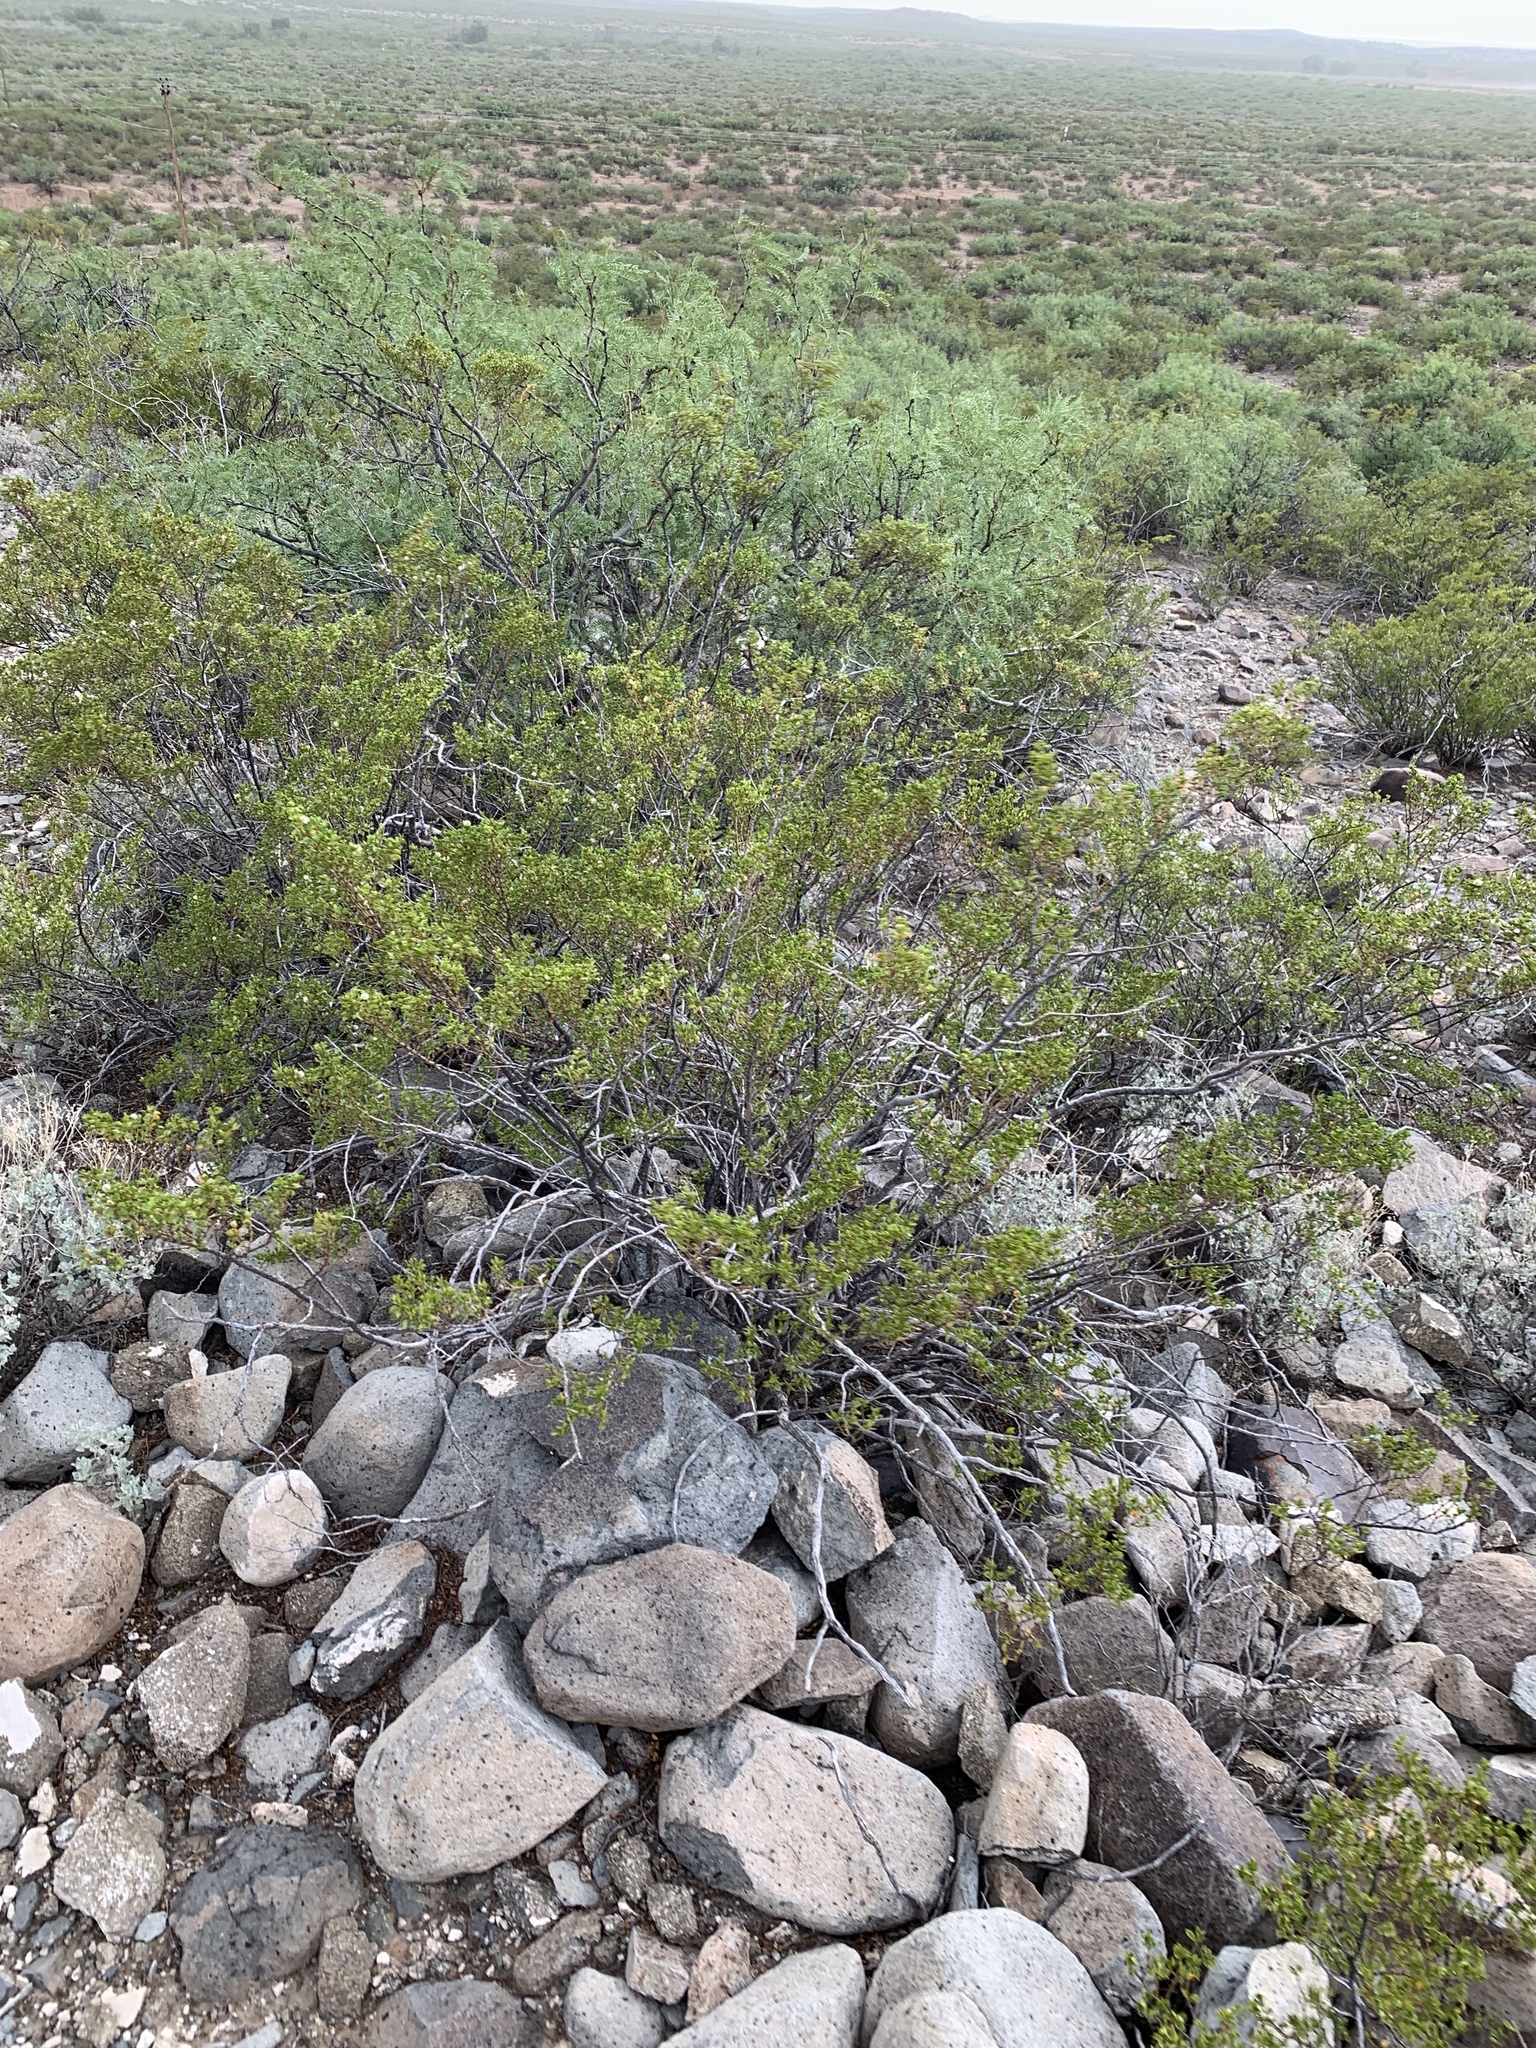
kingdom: Plantae
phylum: Tracheophyta
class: Magnoliopsida
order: Zygophyllales
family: Zygophyllaceae
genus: Larrea
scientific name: Larrea tridentata
